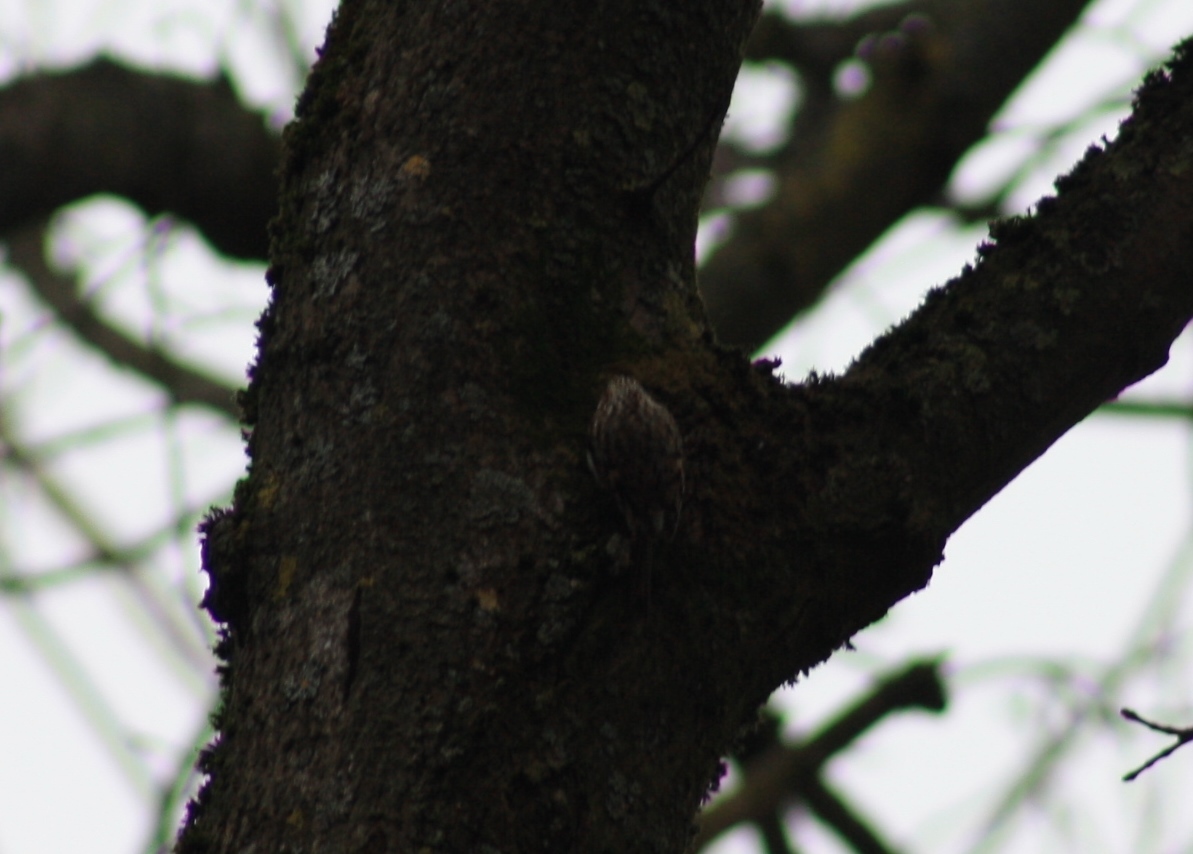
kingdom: Animalia
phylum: Chordata
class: Aves
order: Passeriformes
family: Certhiidae
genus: Certhia
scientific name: Certhia familiaris
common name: Eurasian treecreeper
